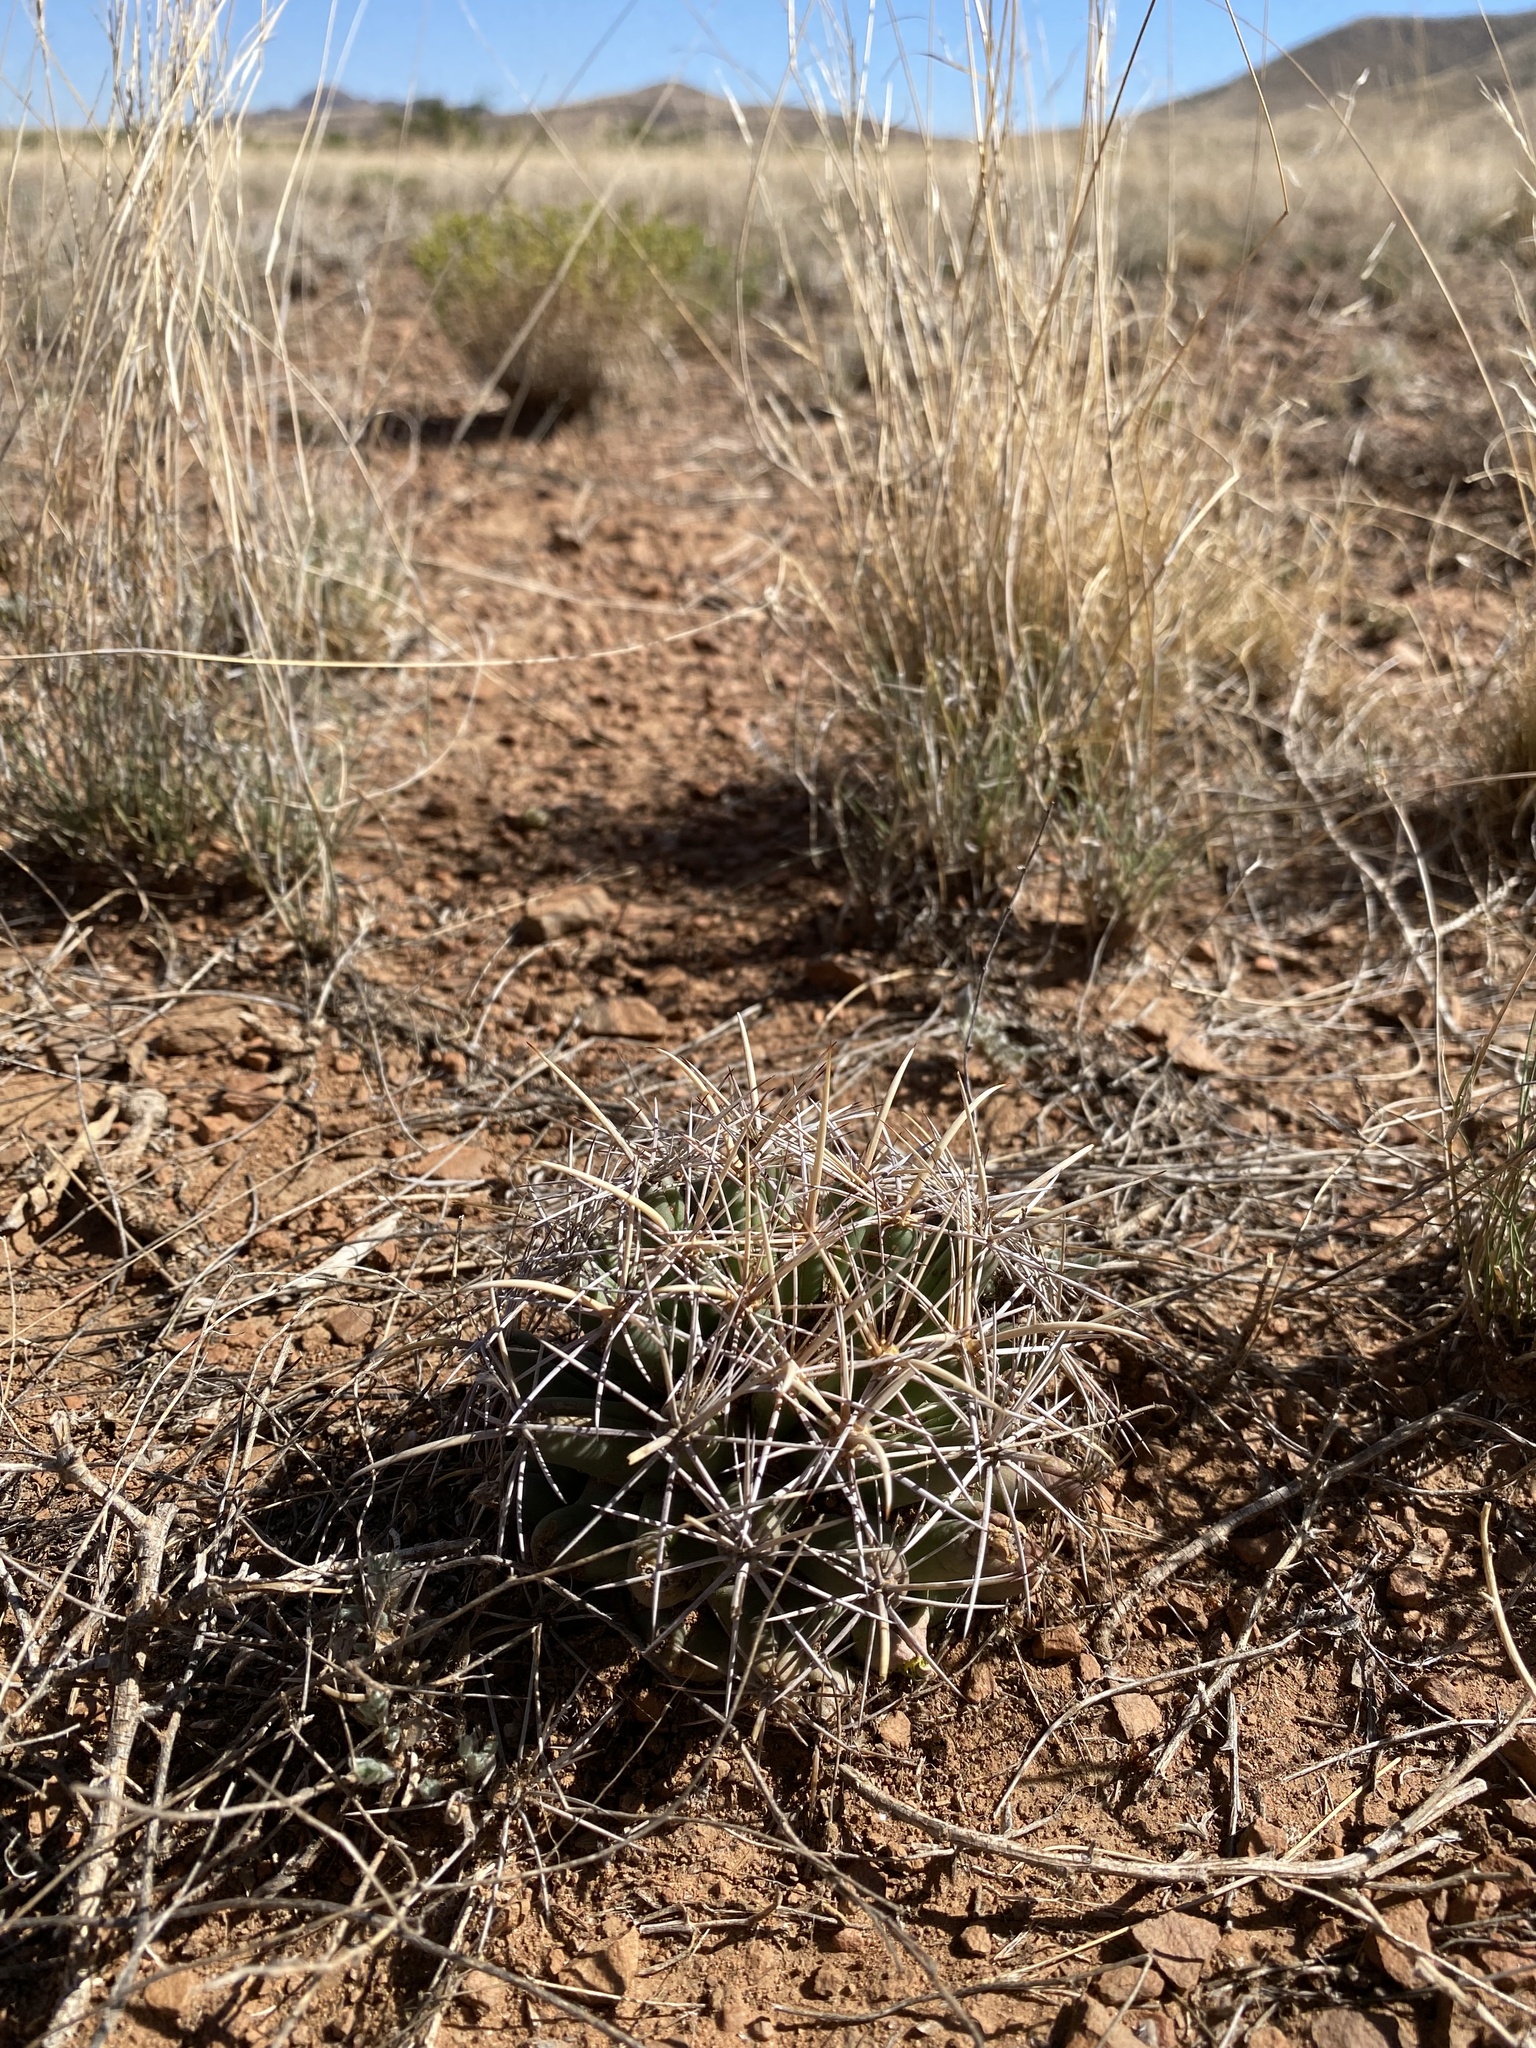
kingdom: Plantae
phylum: Tracheophyta
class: Magnoliopsida
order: Caryophyllales
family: Cactaceae
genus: Coryphantha
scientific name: Coryphantha robustispina
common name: Pima pineapple cactus
